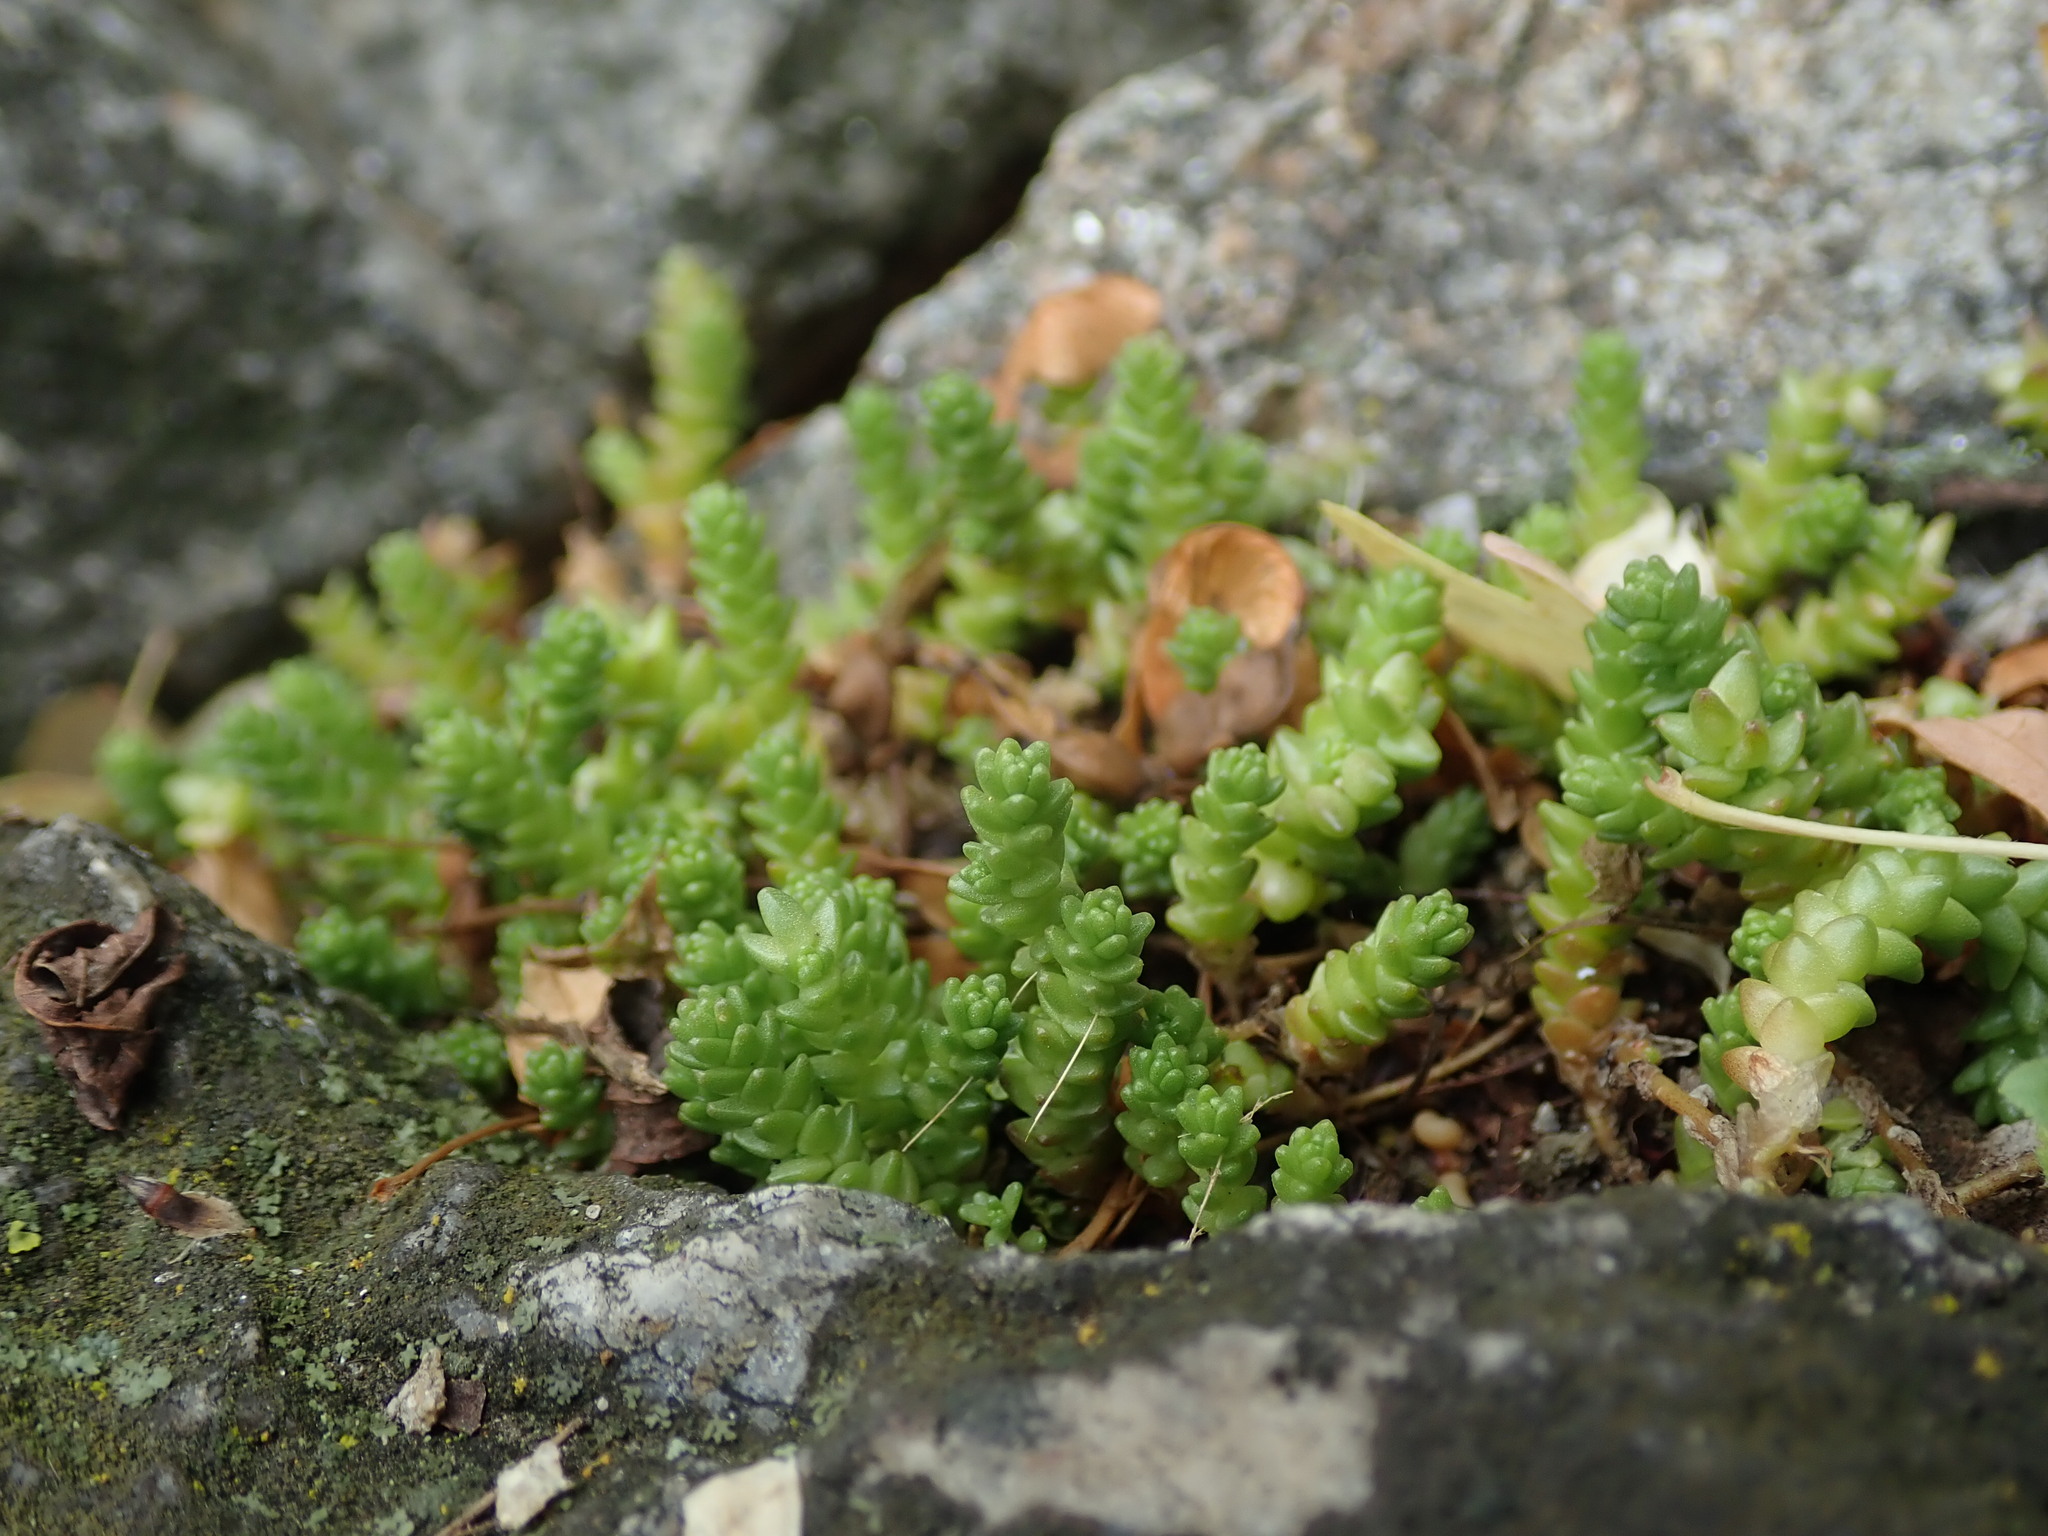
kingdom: Plantae
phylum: Tracheophyta
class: Magnoliopsida
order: Saxifragales
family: Crassulaceae
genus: Sedum
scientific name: Sedum acre
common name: Biting stonecrop
